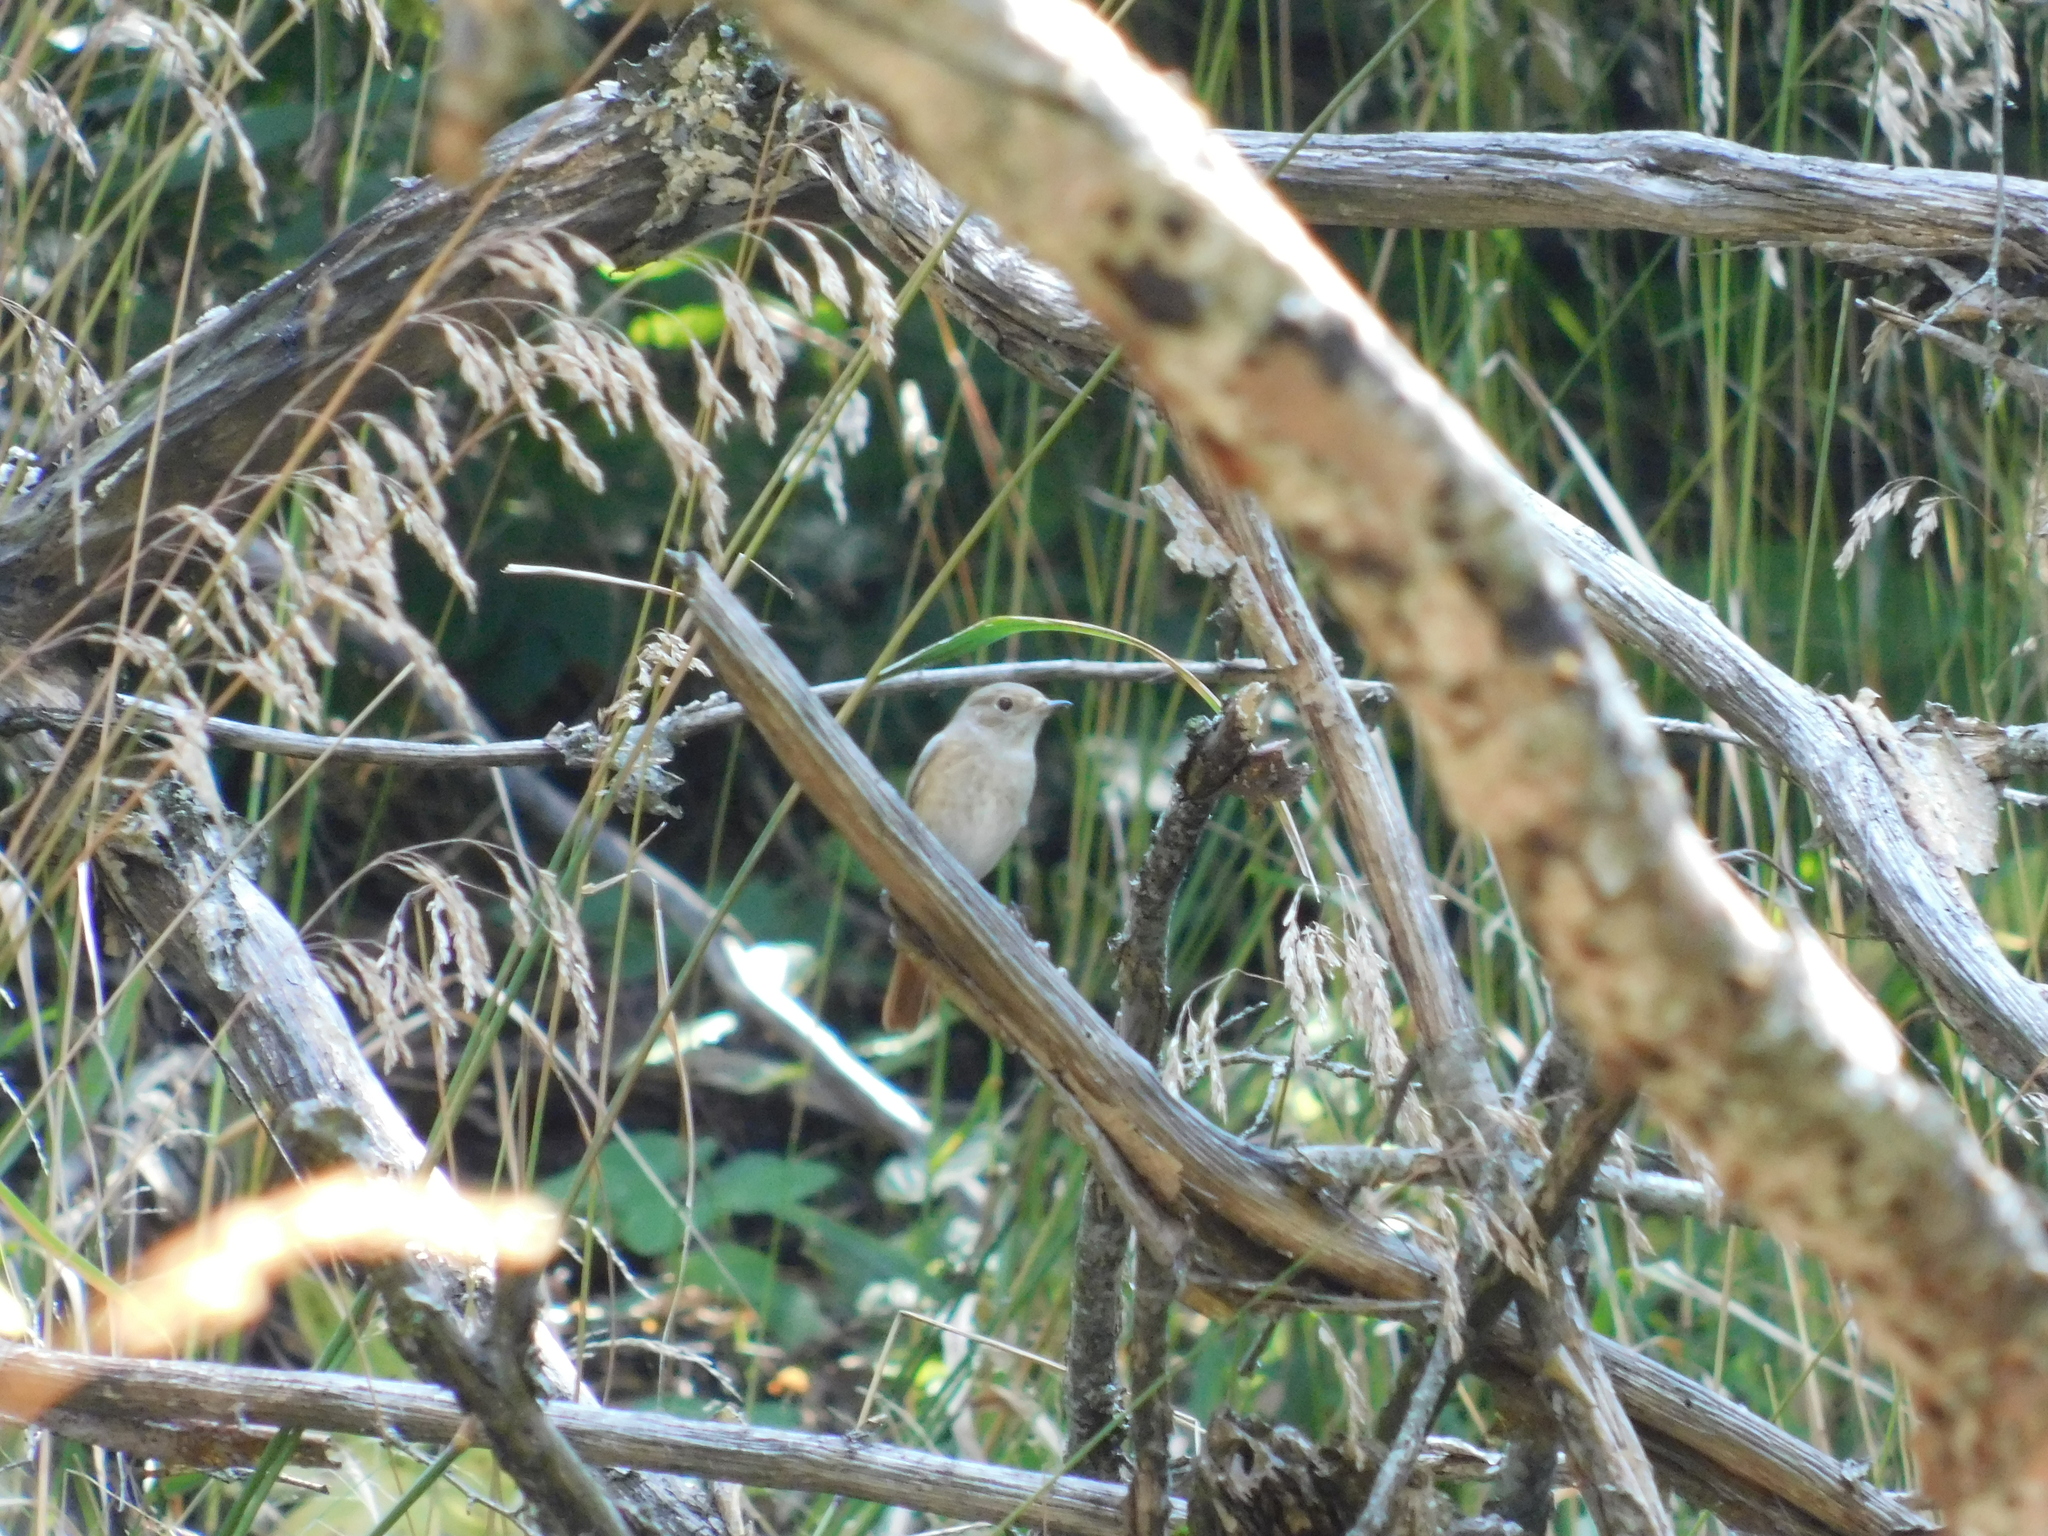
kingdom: Animalia
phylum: Chordata
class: Aves
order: Passeriformes
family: Muscicapidae
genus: Phoenicurus
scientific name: Phoenicurus phoenicurus
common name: Common redstart
